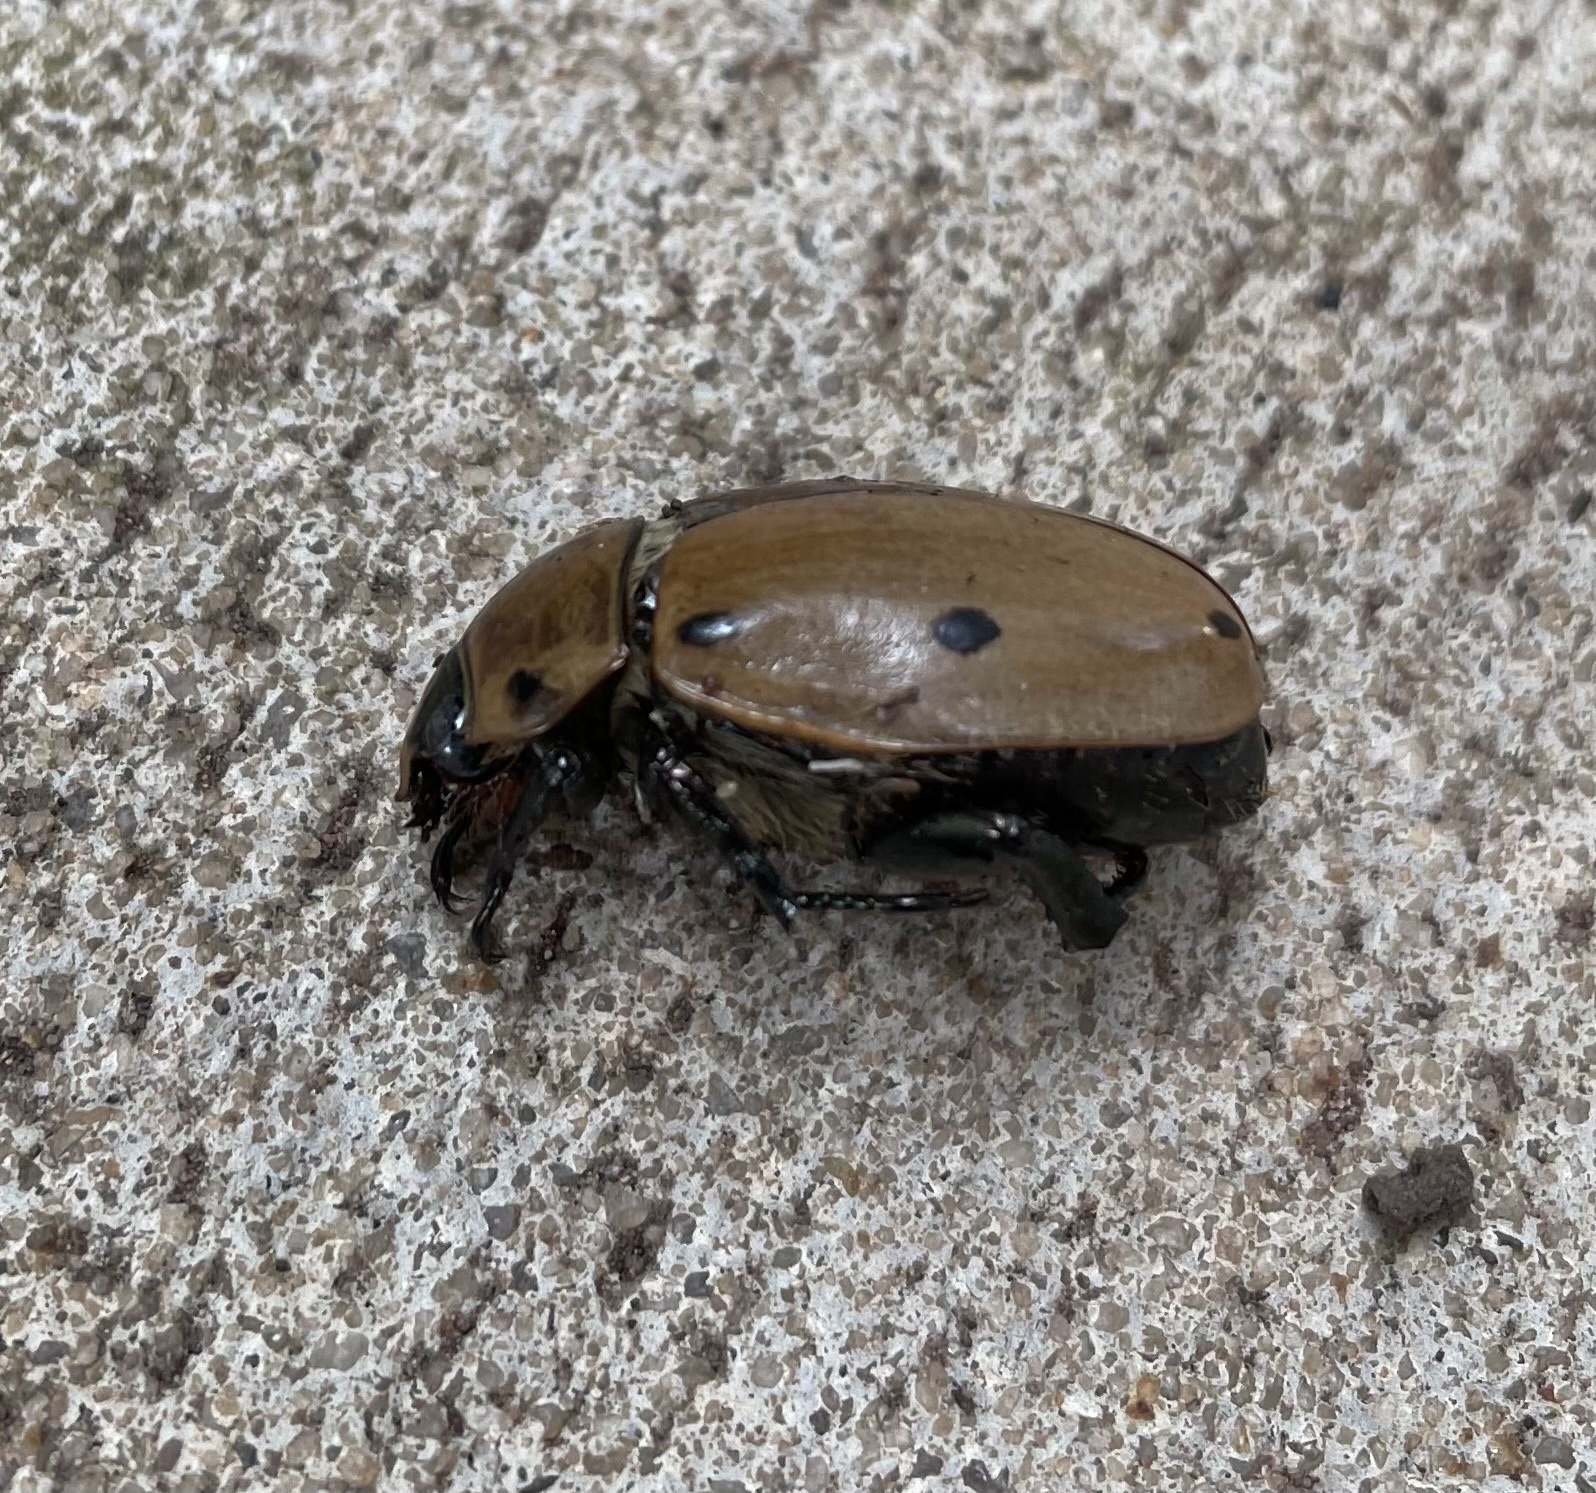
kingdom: Animalia
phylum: Arthropoda
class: Insecta
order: Coleoptera
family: Scarabaeidae
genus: Pelidnota
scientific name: Pelidnota punctata
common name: Grapevine beetle
